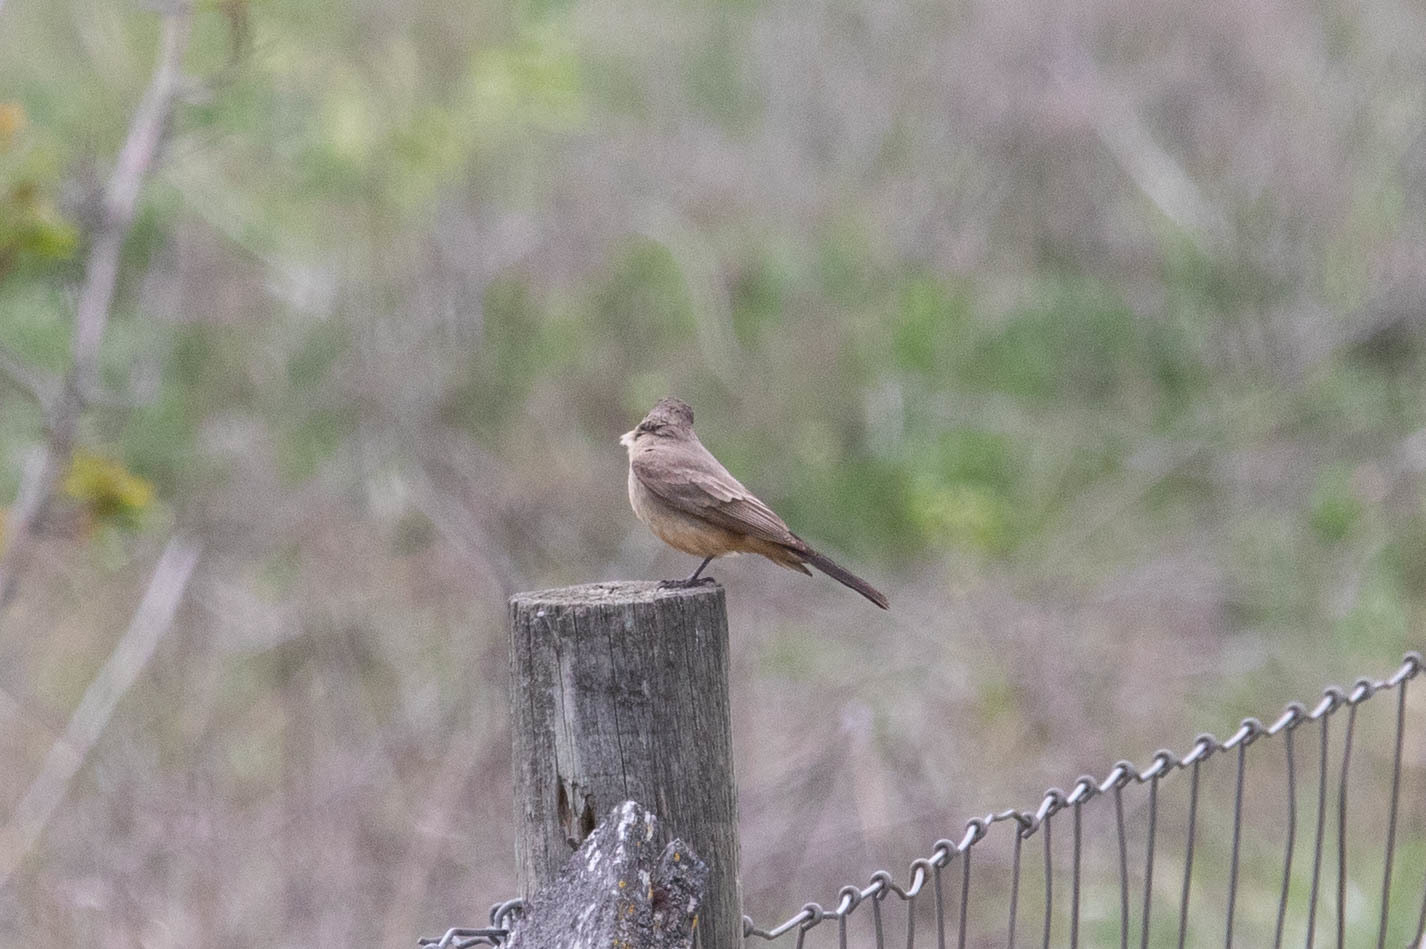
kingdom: Animalia
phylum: Chordata
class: Aves
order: Passeriformes
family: Tyrannidae
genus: Sayornis
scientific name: Sayornis saya
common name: Say's phoebe
